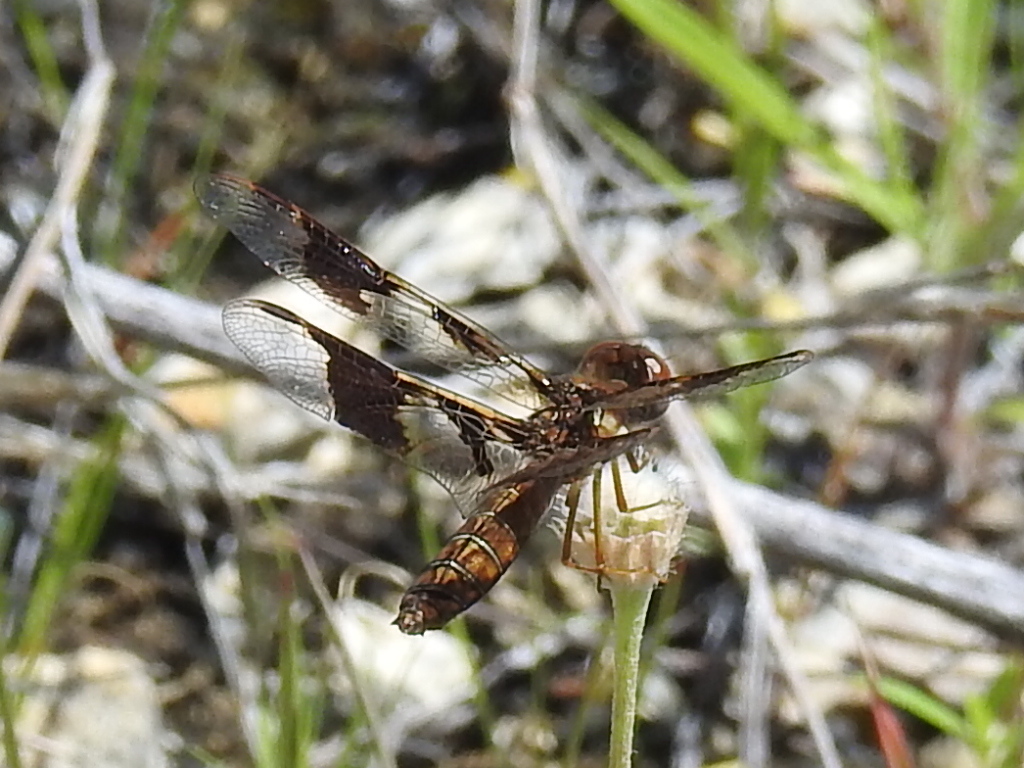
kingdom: Animalia
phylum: Arthropoda
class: Insecta
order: Odonata
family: Libellulidae
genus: Perithemis
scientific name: Perithemis tenera
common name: Eastern amberwing
